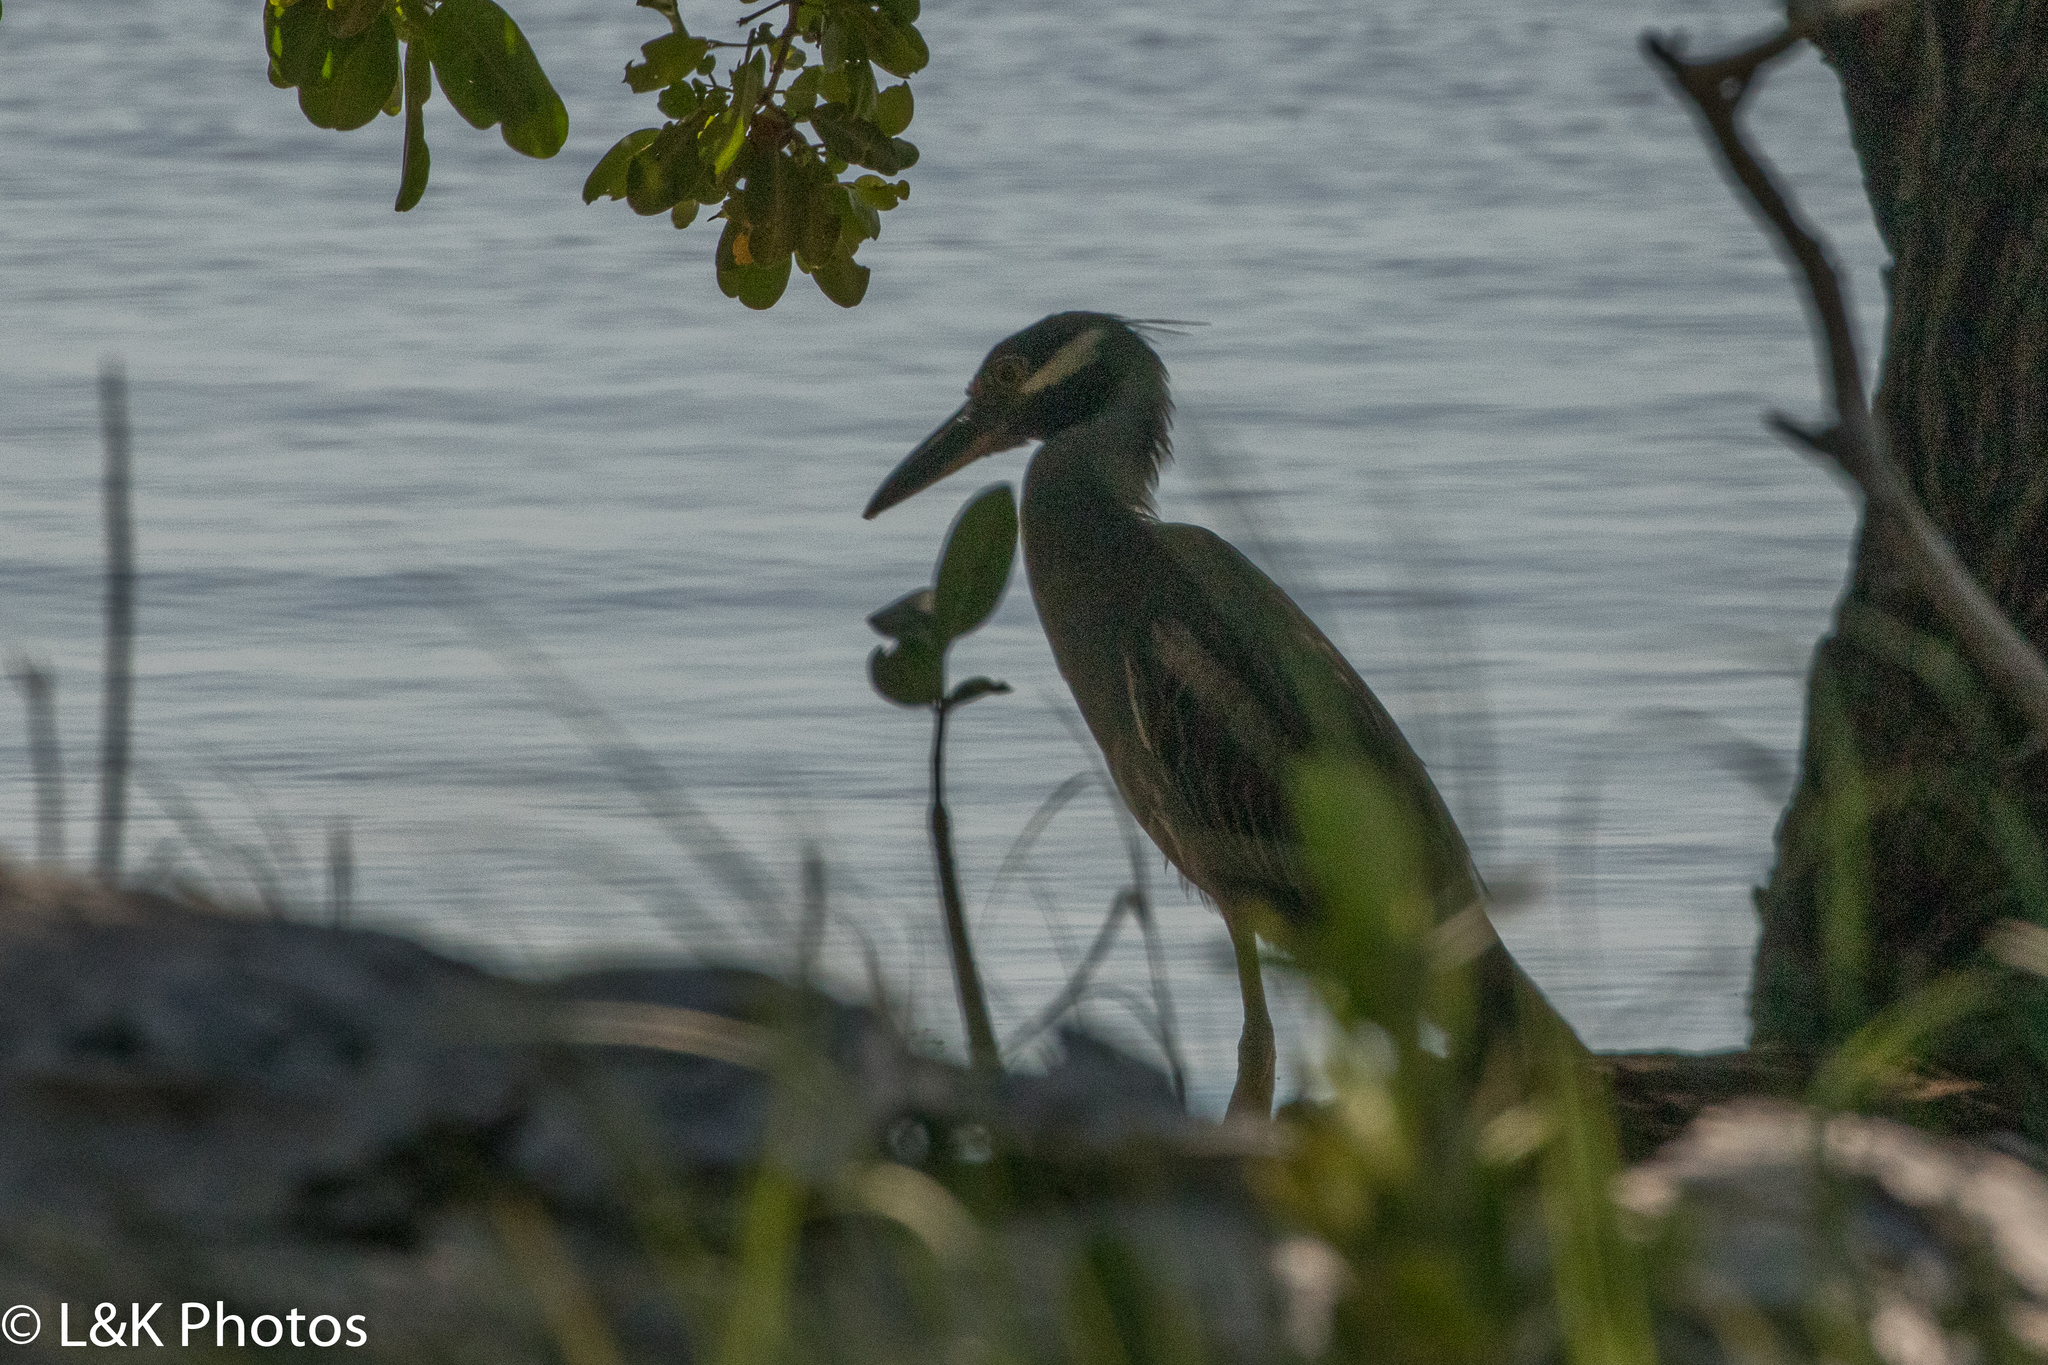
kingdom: Animalia
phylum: Chordata
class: Aves
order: Pelecaniformes
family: Ardeidae
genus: Nyctanassa
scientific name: Nyctanassa violacea
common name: Yellow-crowned night heron
